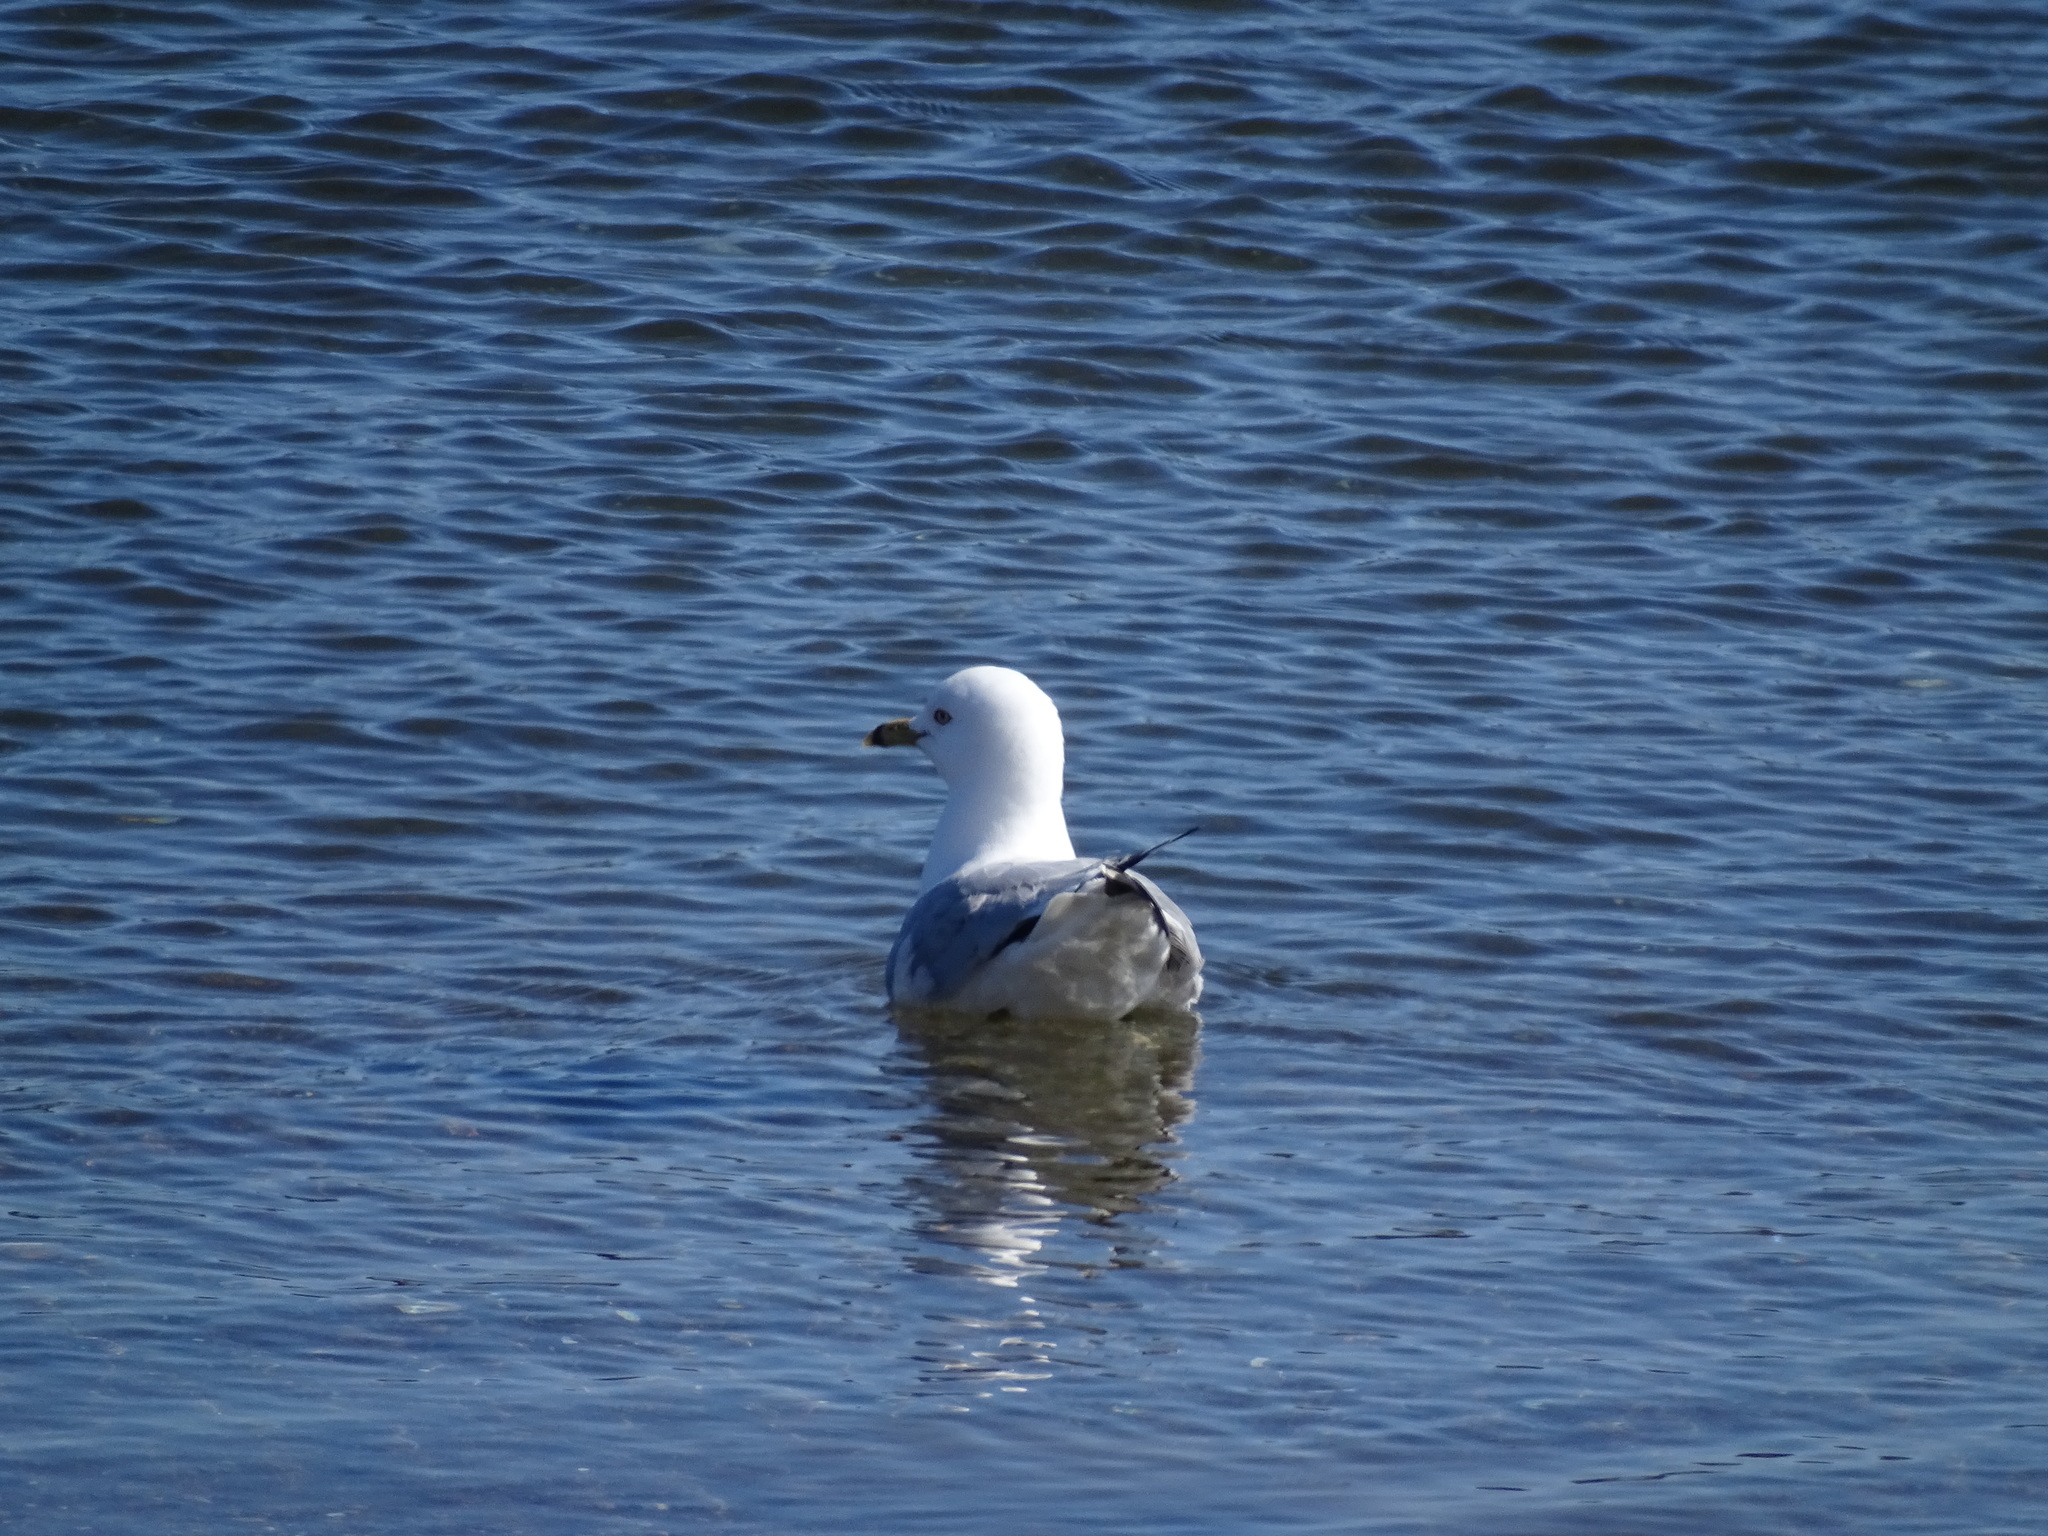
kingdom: Animalia
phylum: Chordata
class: Aves
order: Charadriiformes
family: Laridae
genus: Larus
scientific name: Larus delawarensis
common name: Ring-billed gull
